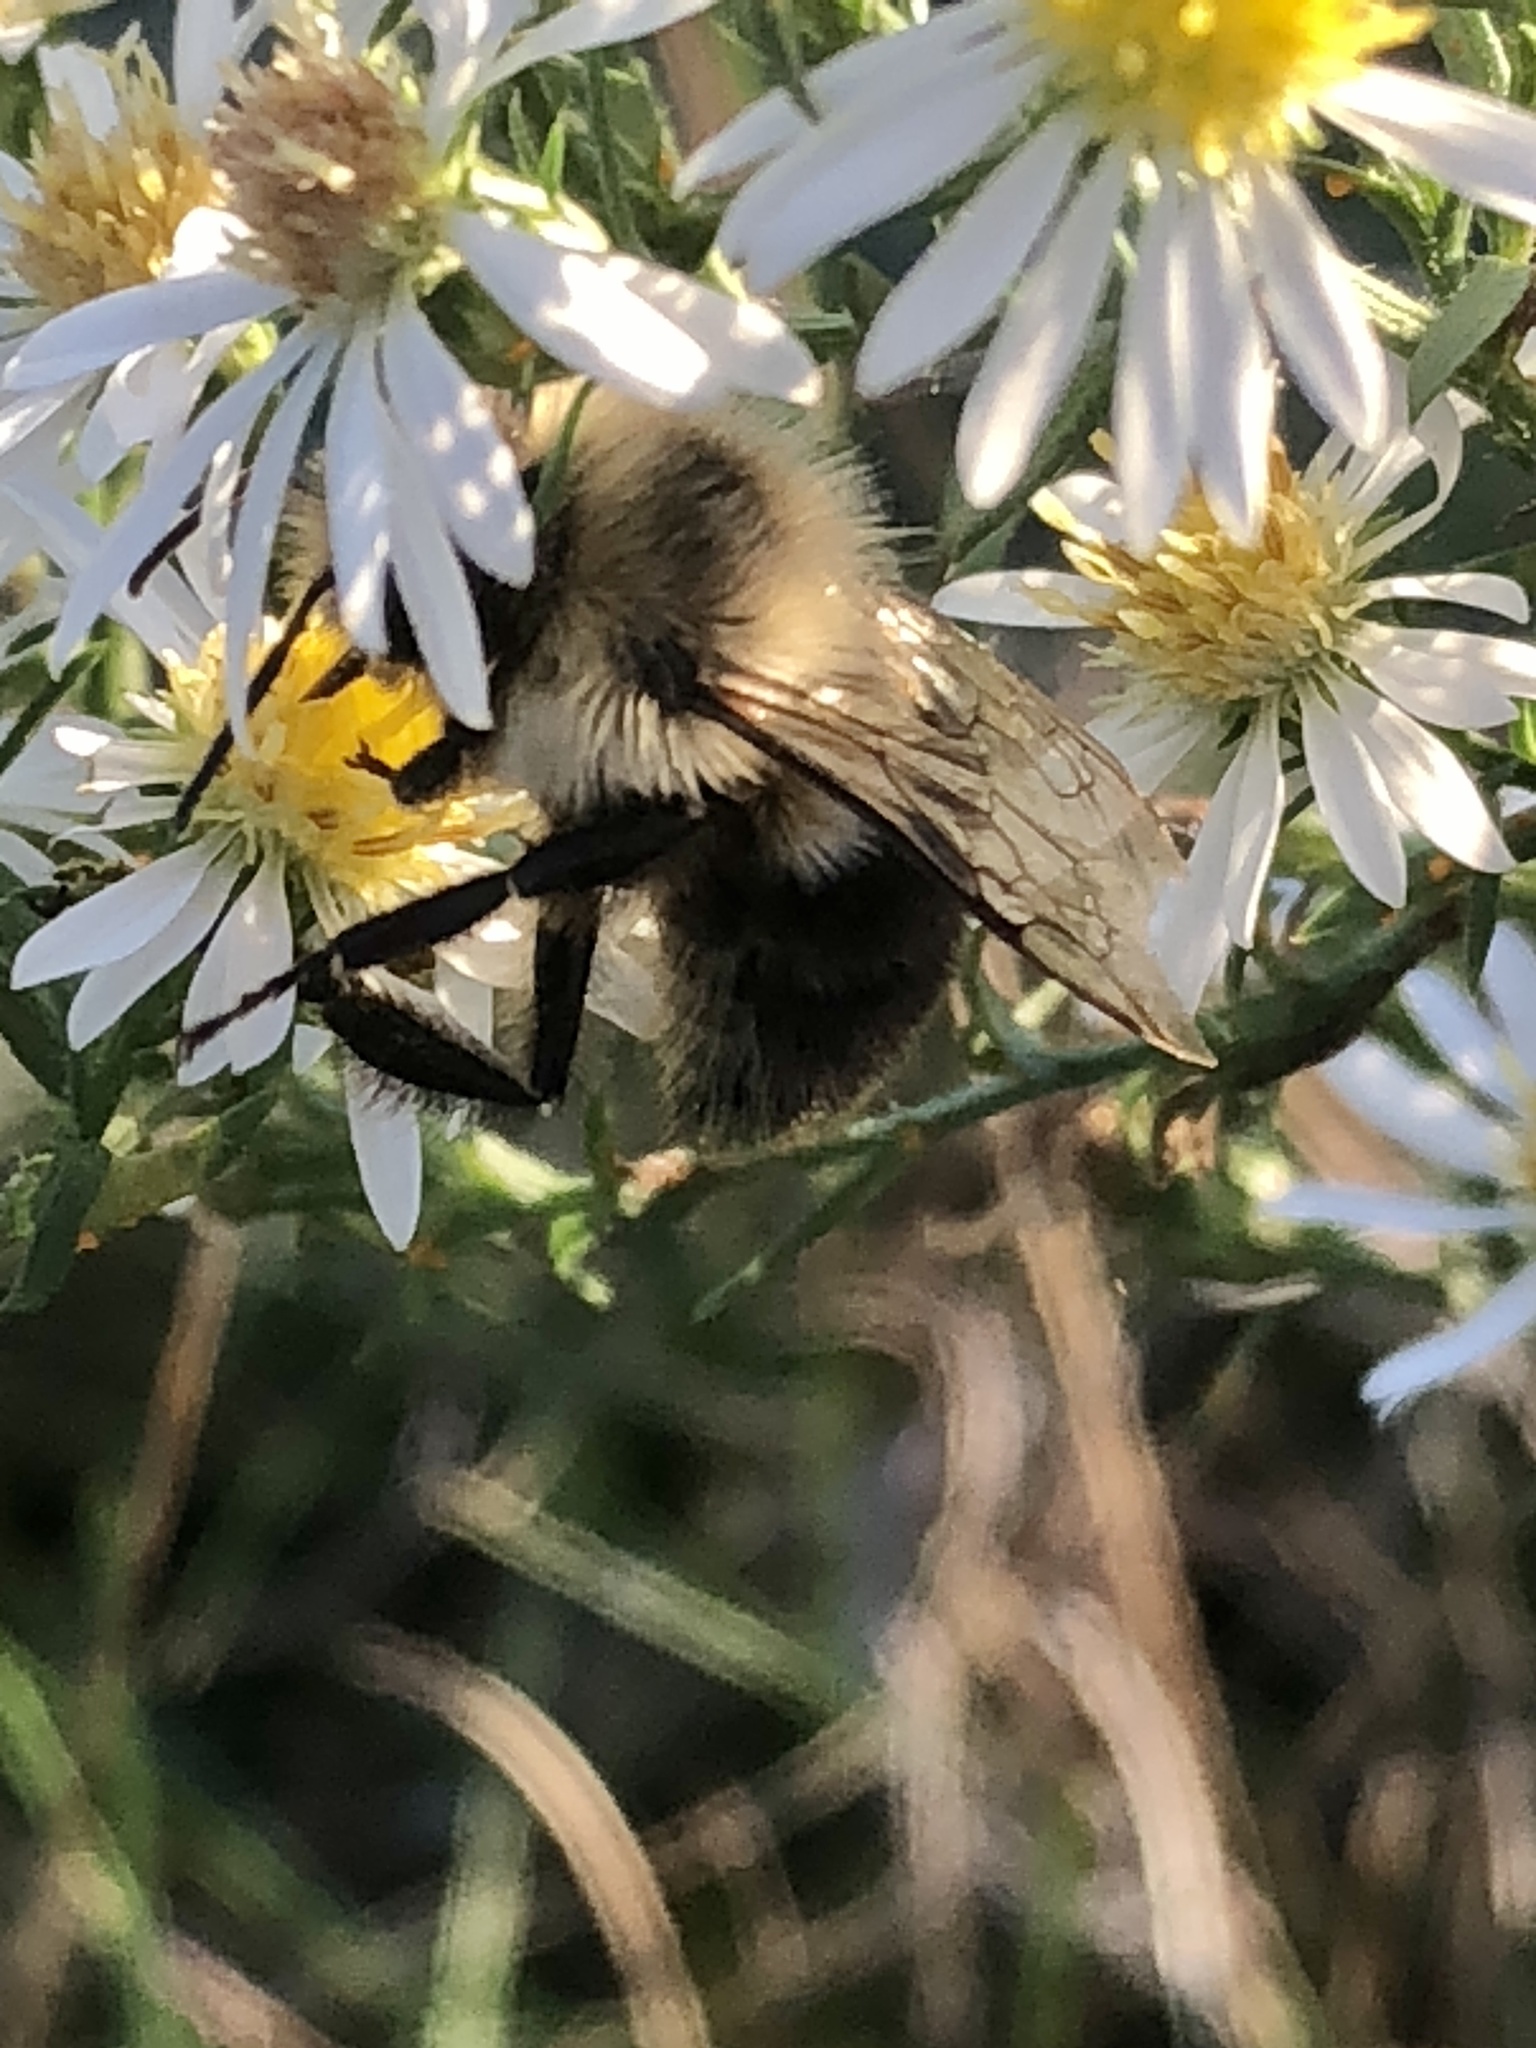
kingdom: Animalia
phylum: Arthropoda
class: Insecta
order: Hymenoptera
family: Apidae
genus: Bombus
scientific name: Bombus impatiens
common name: Common eastern bumble bee
